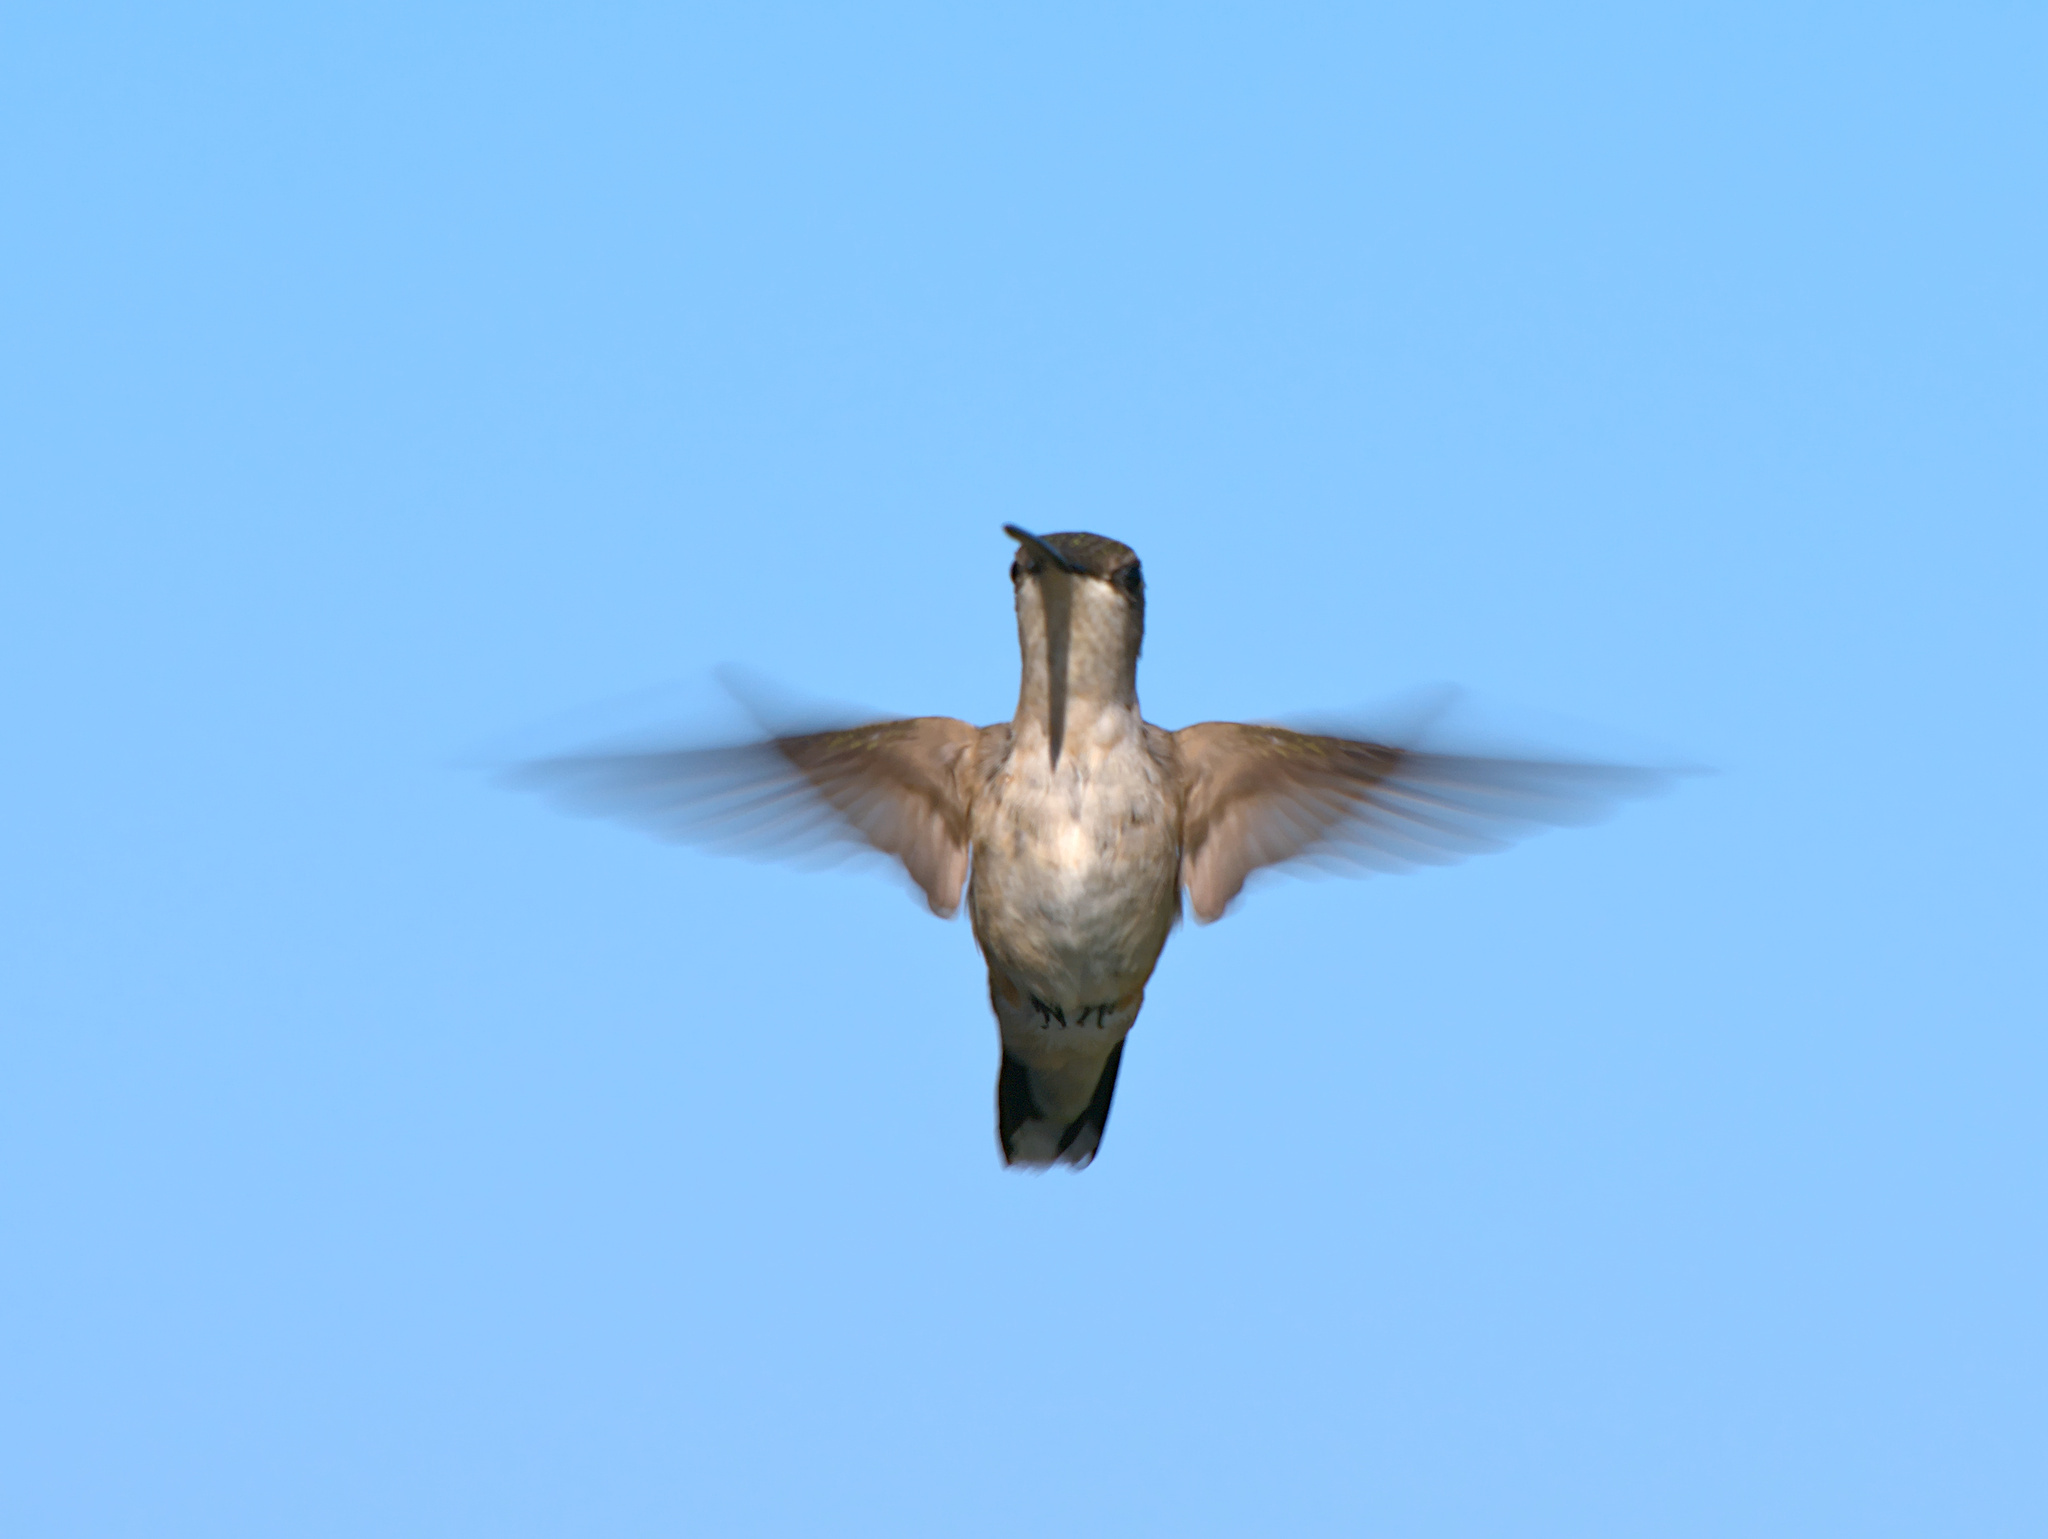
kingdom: Animalia
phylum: Chordata
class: Aves
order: Apodiformes
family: Trochilidae
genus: Archilochus
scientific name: Archilochus colubris
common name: Ruby-throated hummingbird
